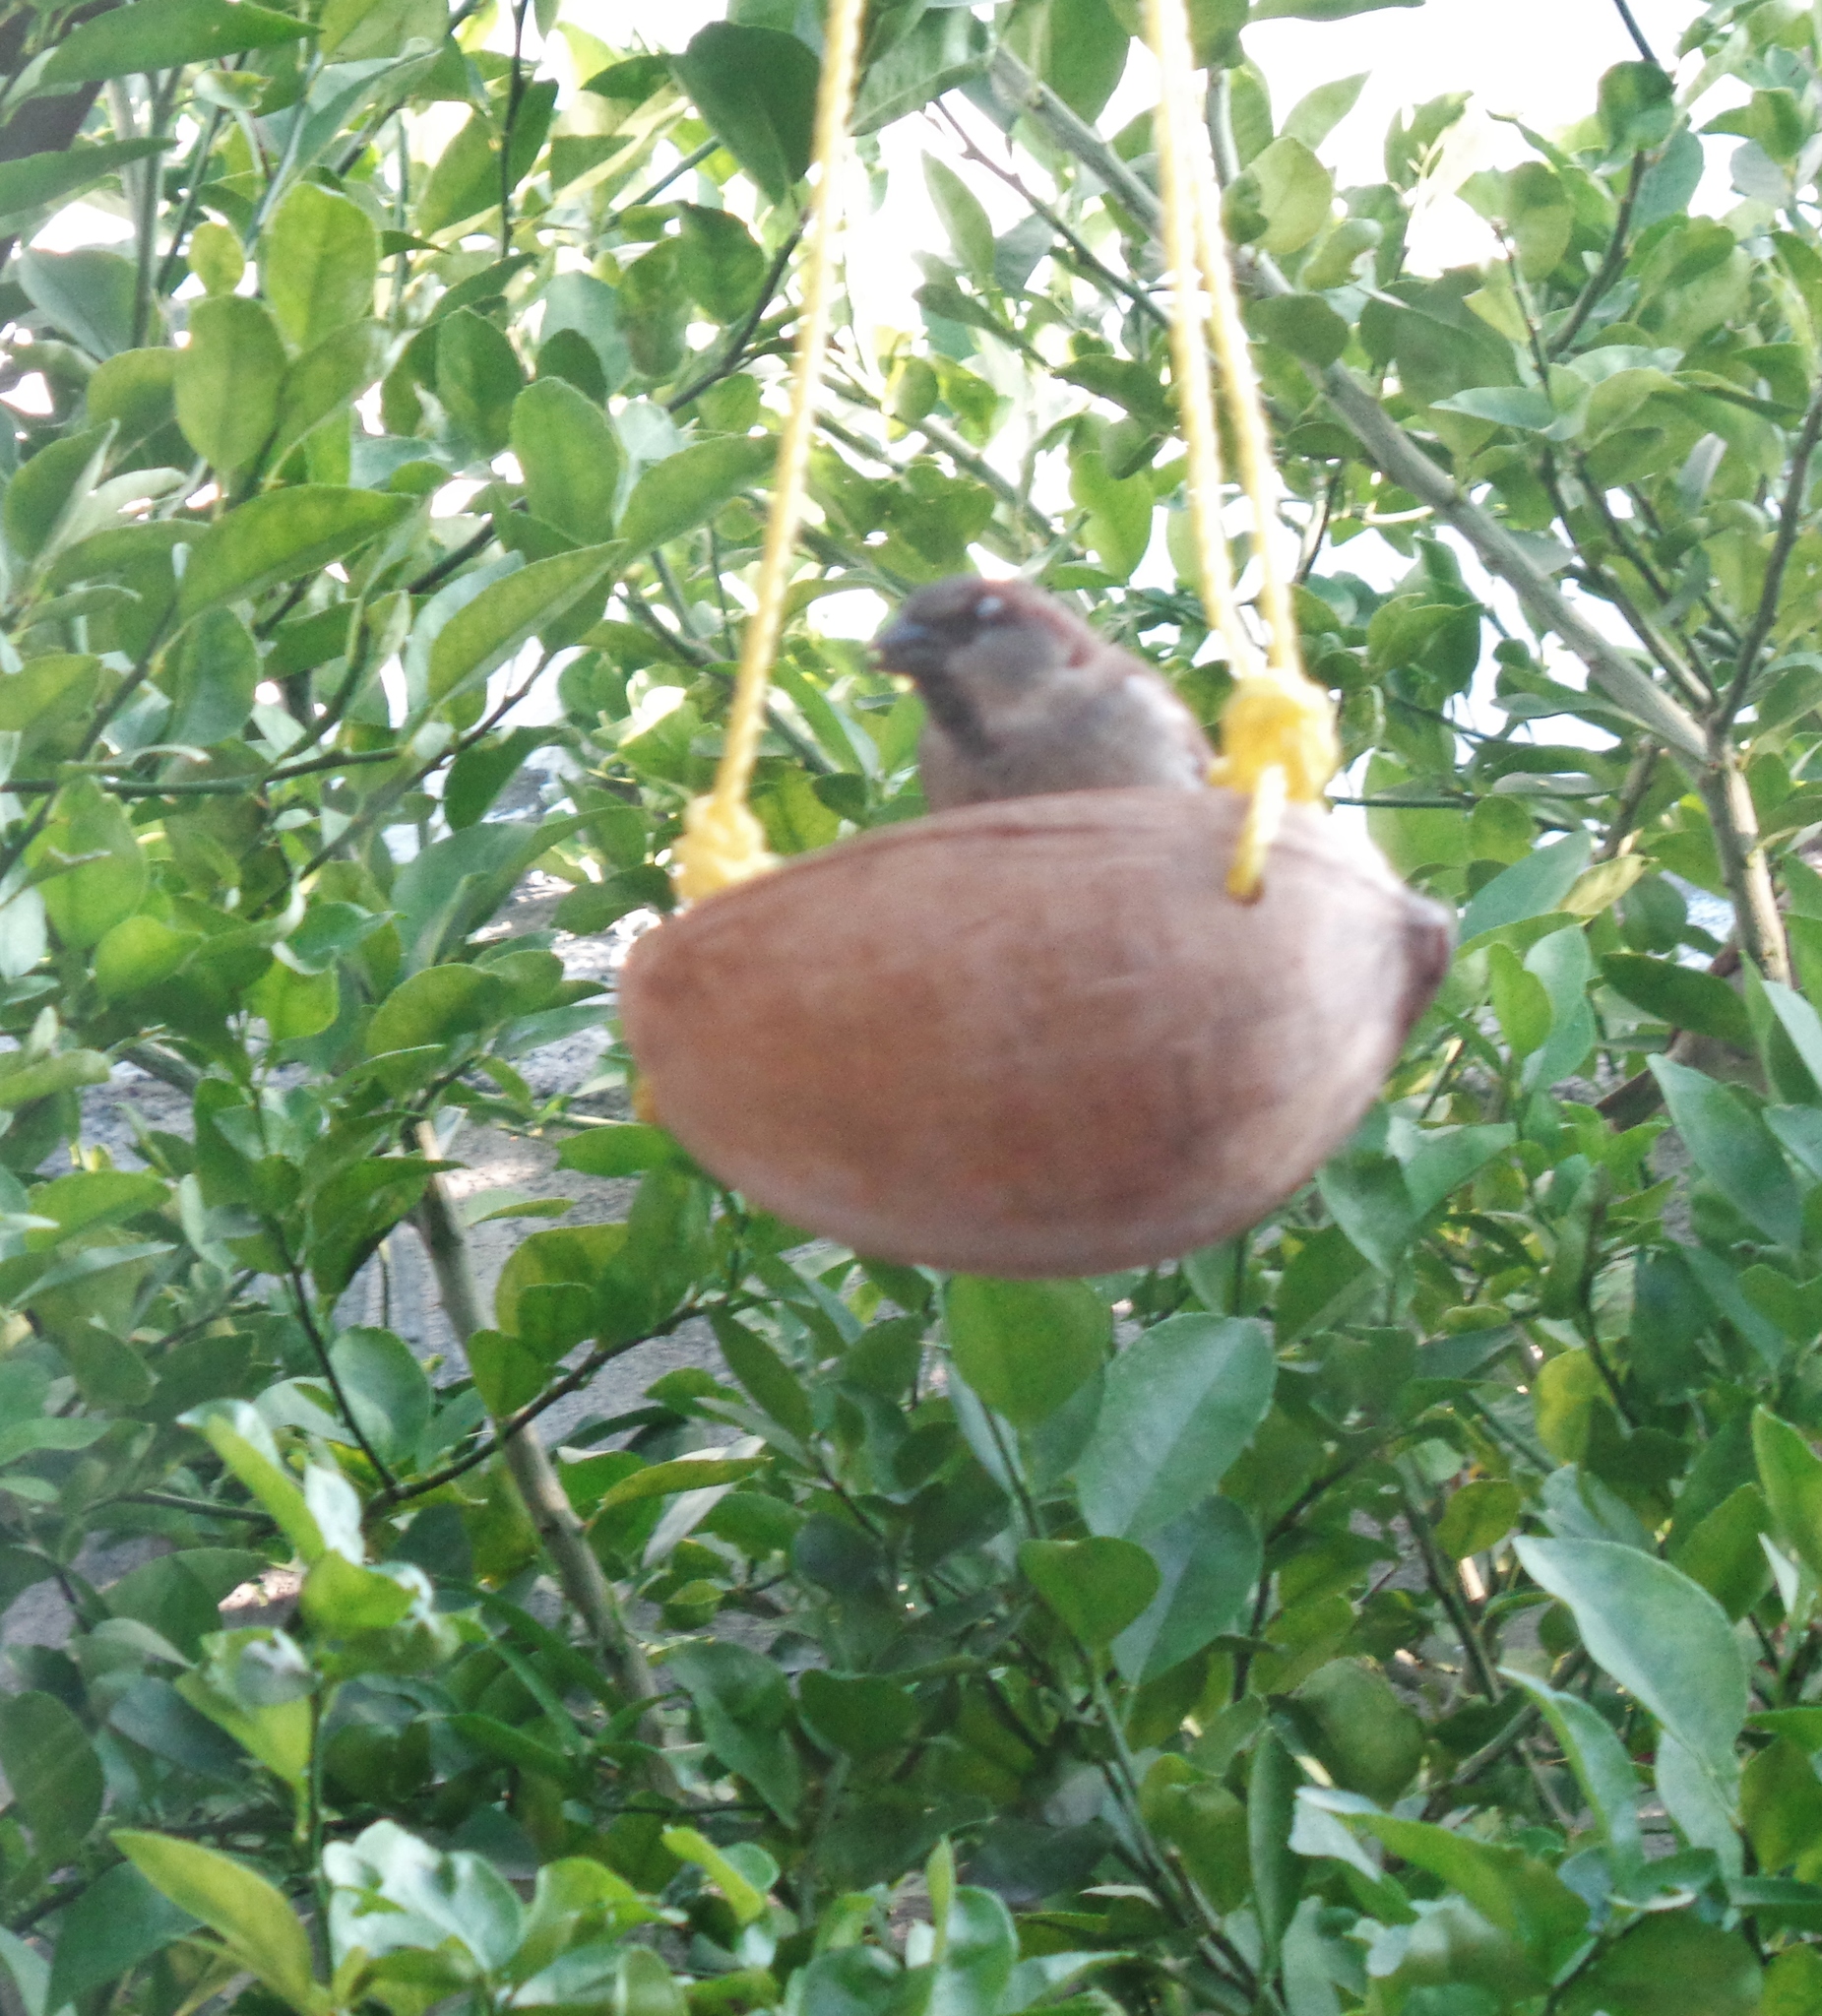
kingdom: Animalia
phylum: Chordata
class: Aves
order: Passeriformes
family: Passeridae
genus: Passer
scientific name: Passer domesticus
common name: House sparrow
